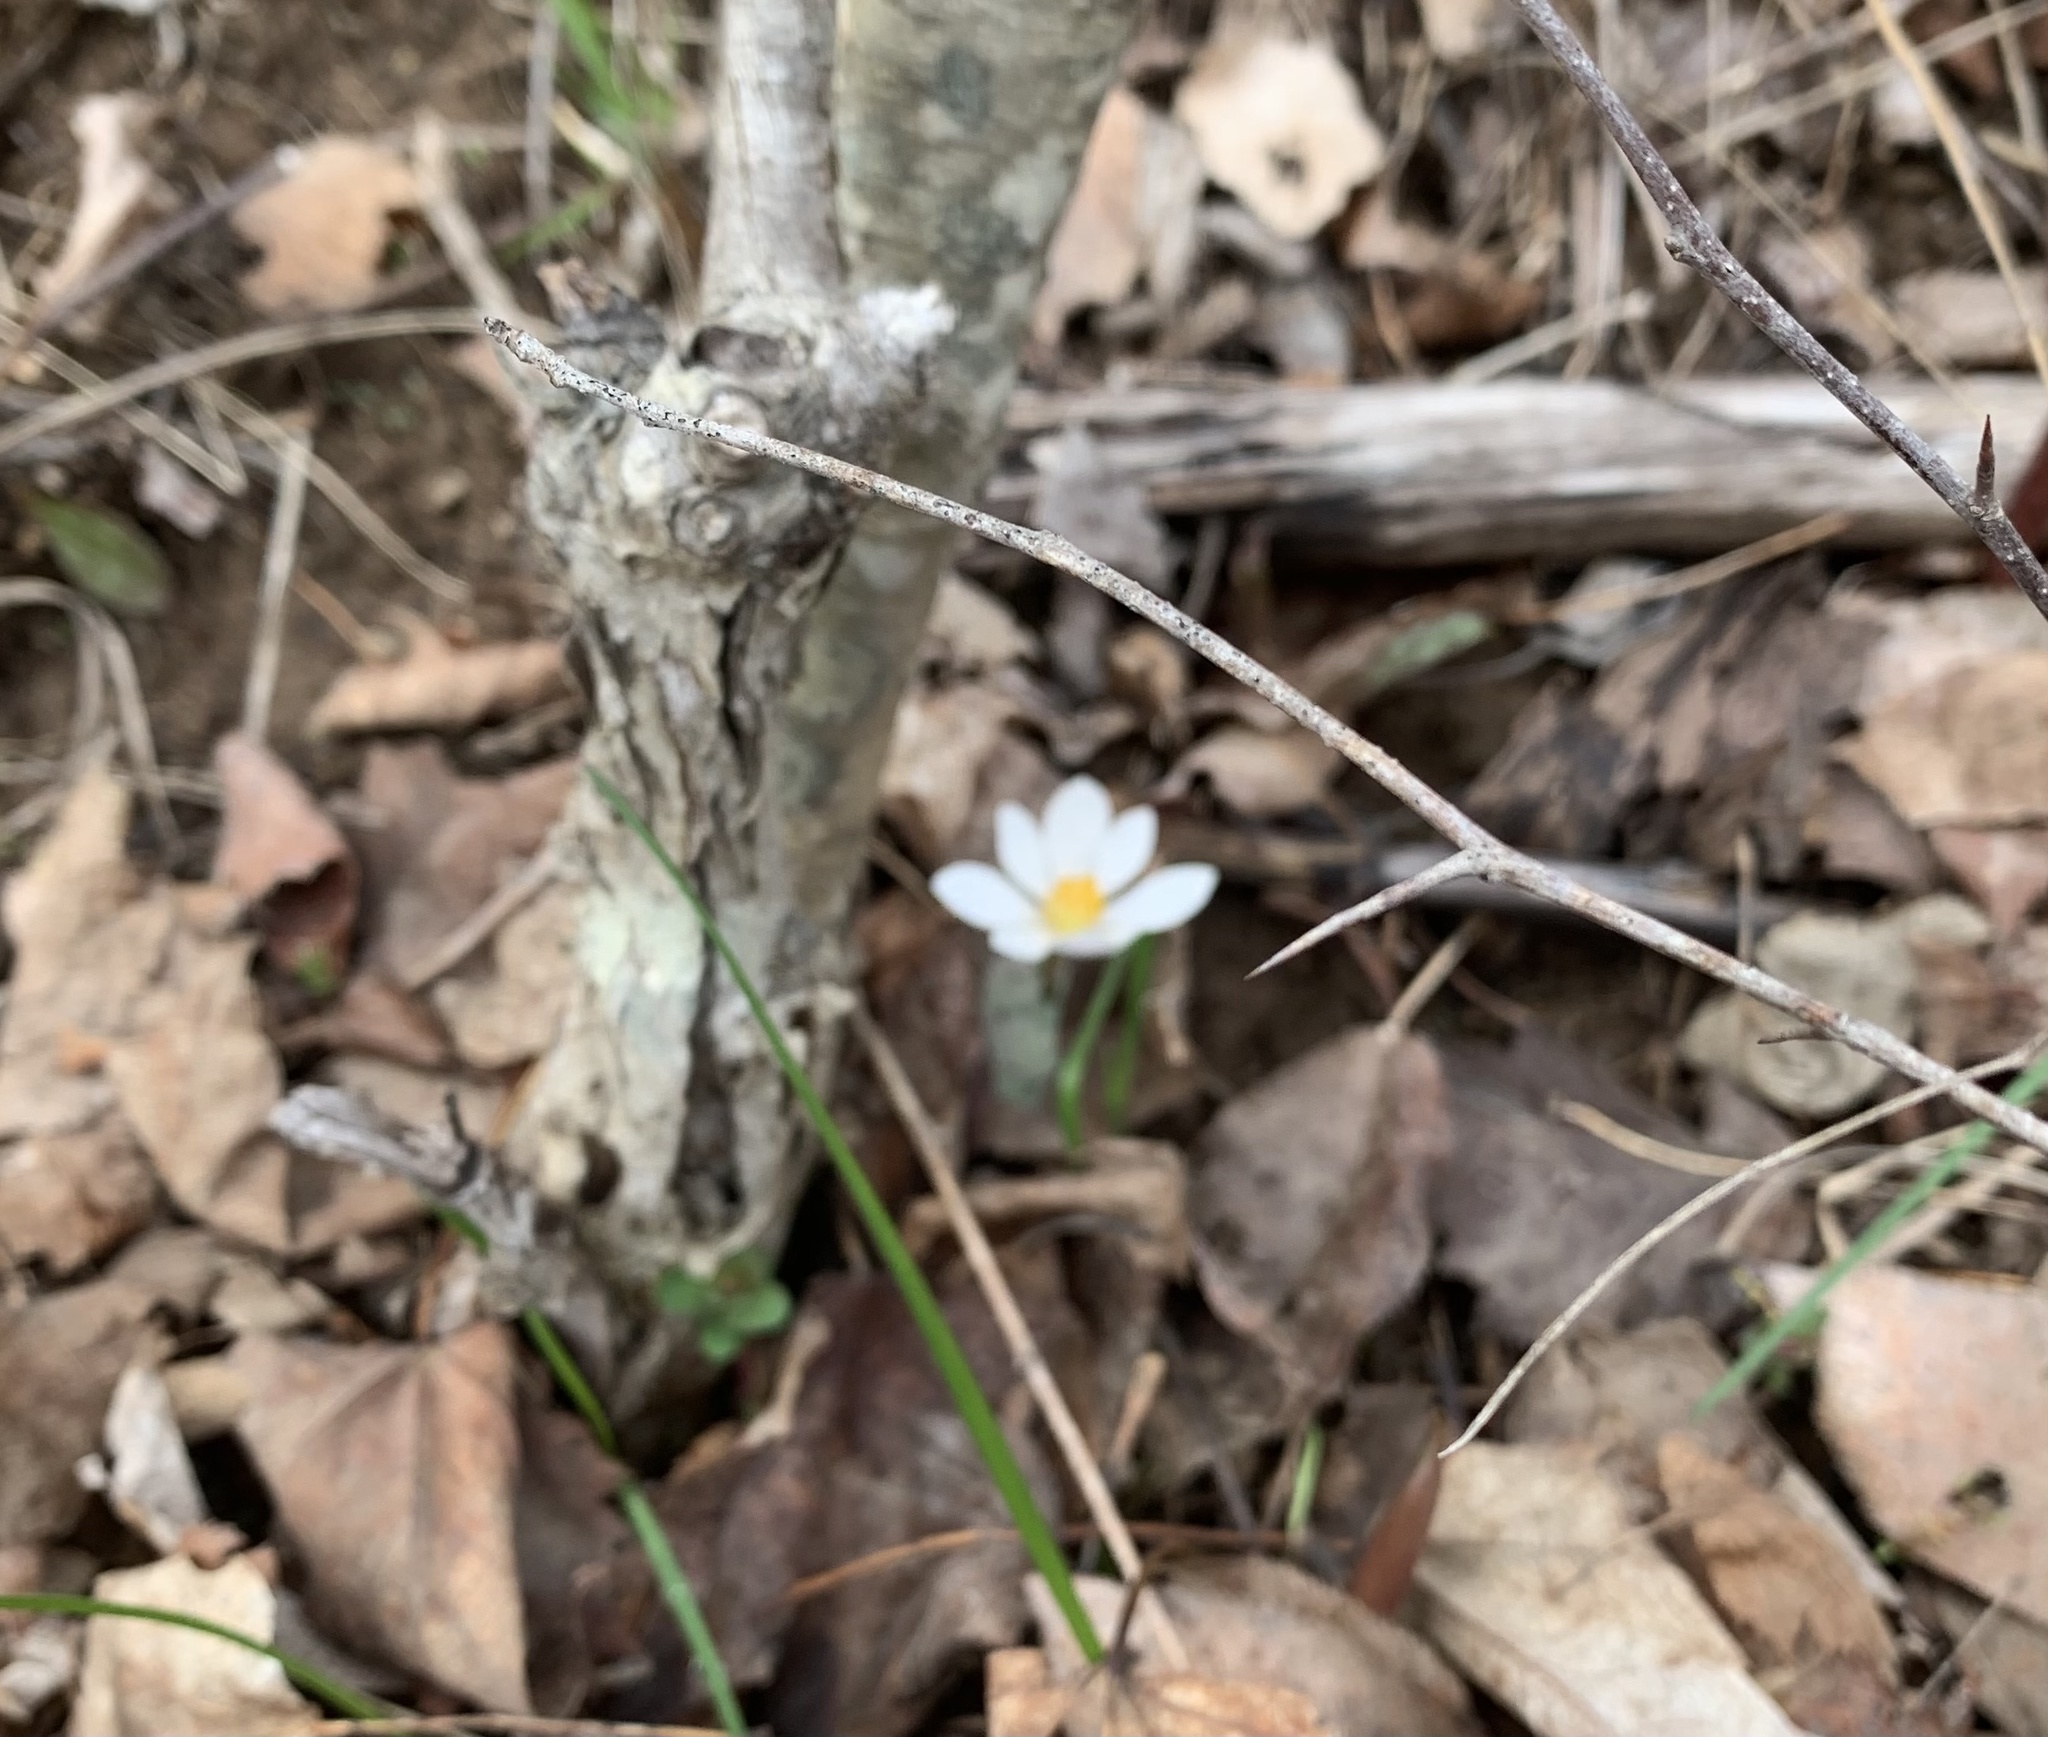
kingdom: Plantae
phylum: Tracheophyta
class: Magnoliopsida
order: Ranunculales
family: Papaveraceae
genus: Sanguinaria
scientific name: Sanguinaria canadensis
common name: Bloodroot
